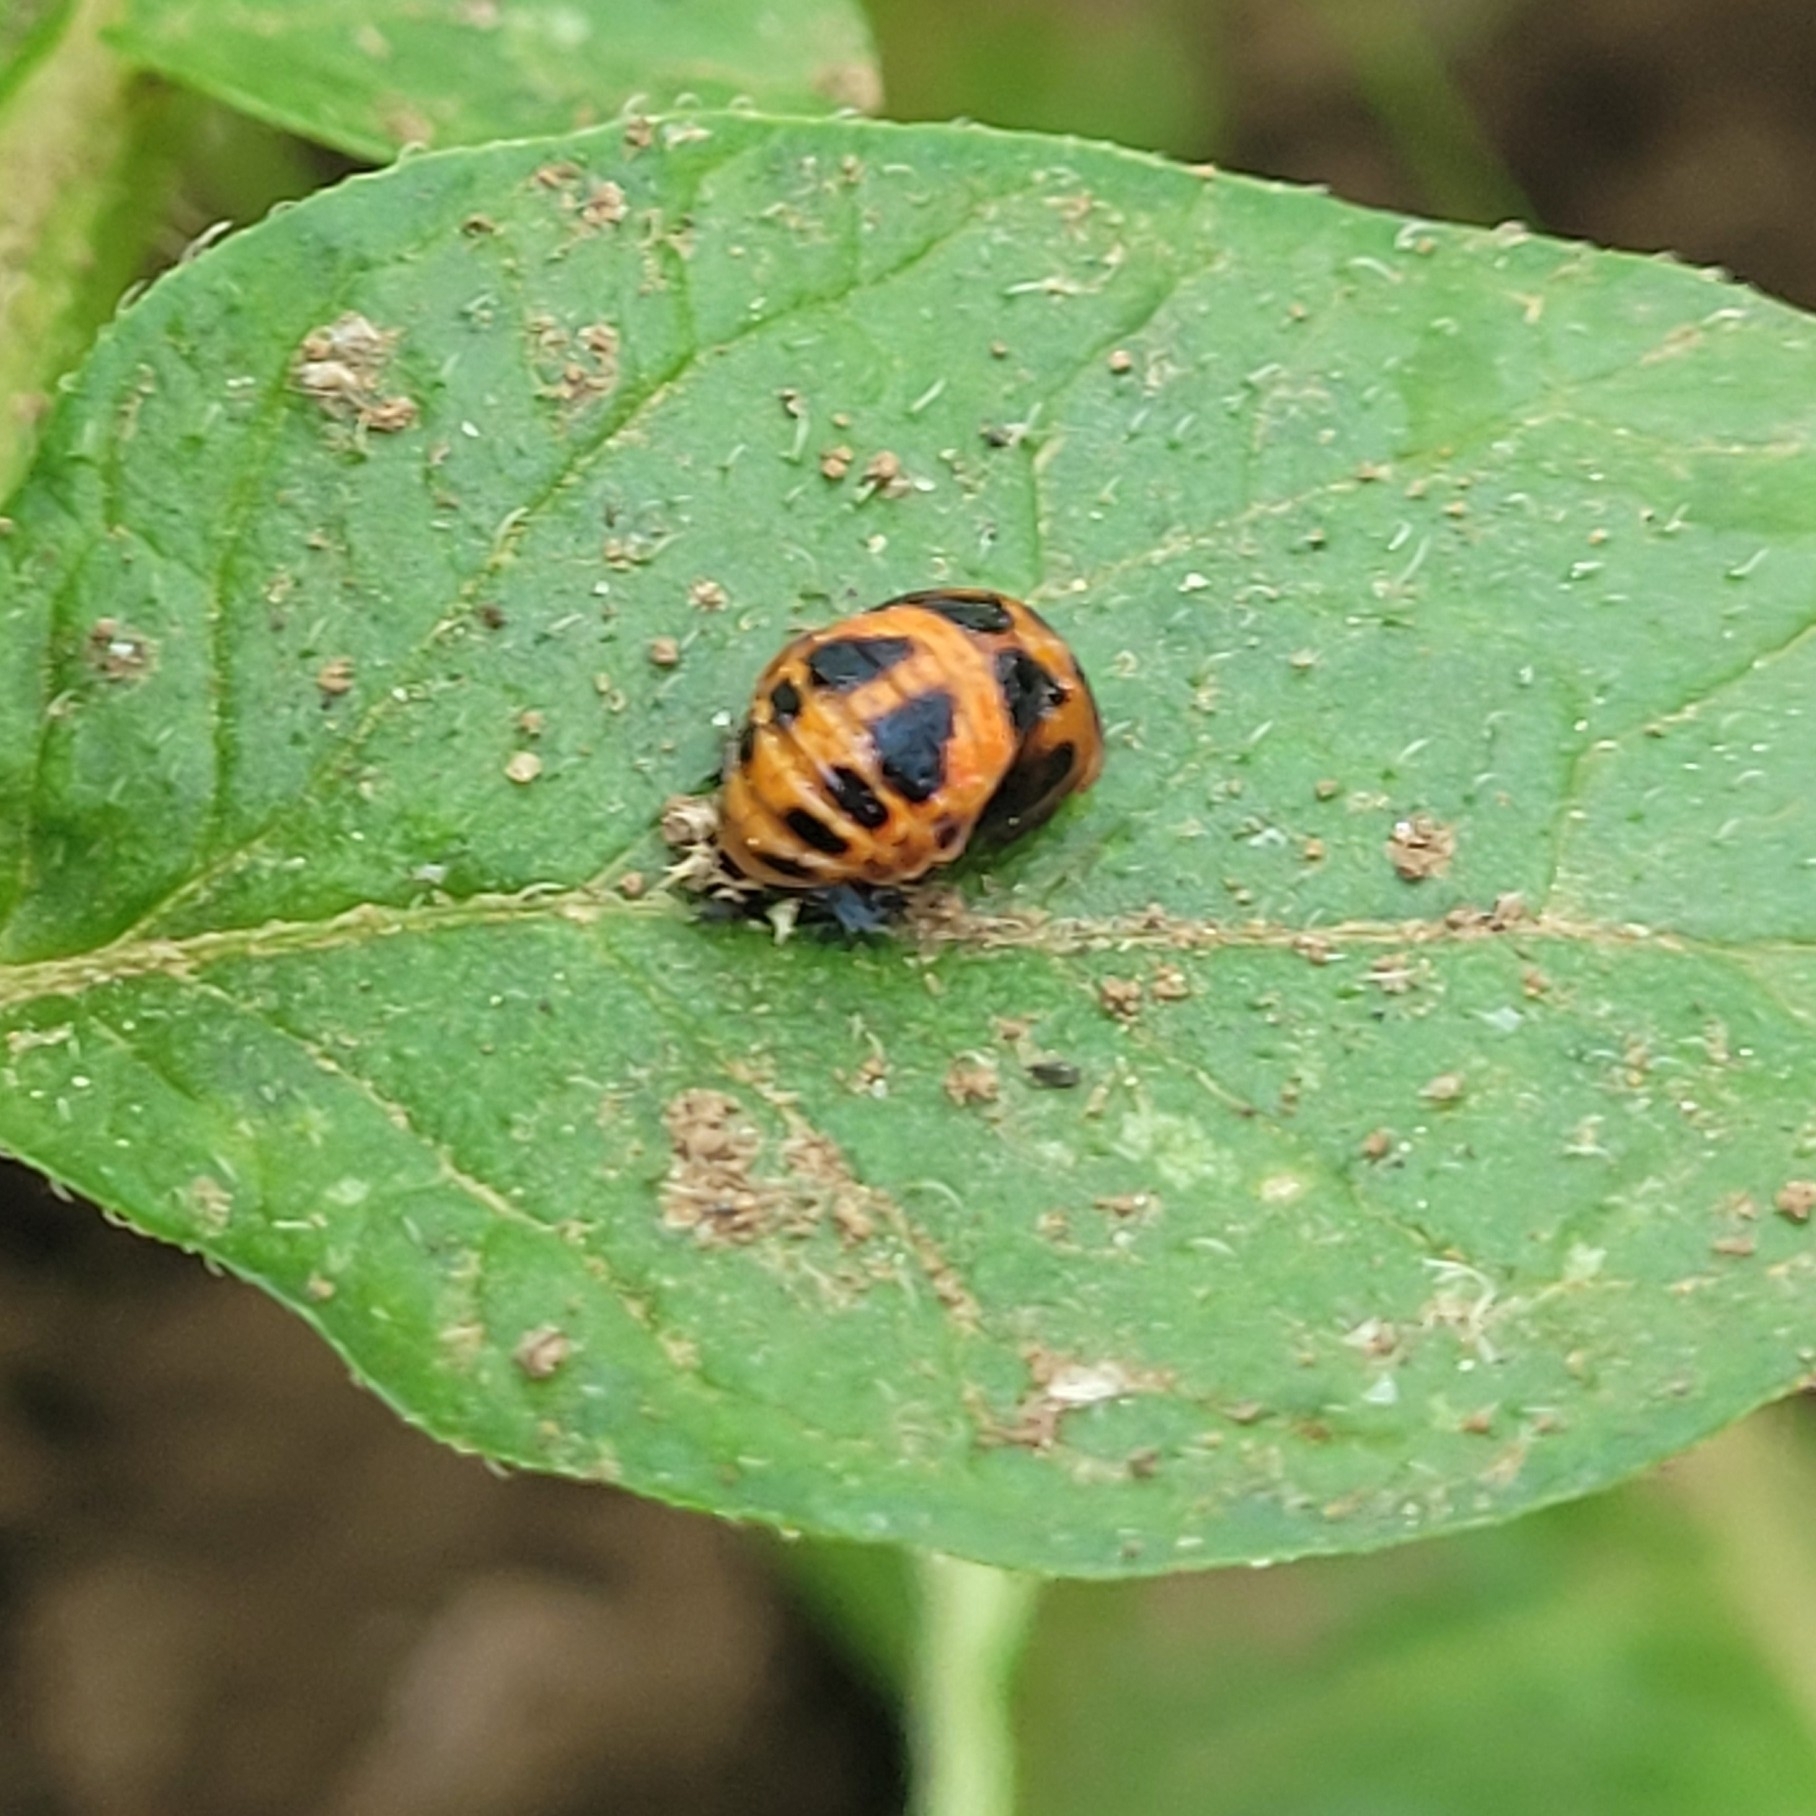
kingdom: Animalia
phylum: Arthropoda
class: Insecta
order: Coleoptera
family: Coccinellidae
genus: Harmonia
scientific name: Harmonia axyridis
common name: Harlequin ladybird
